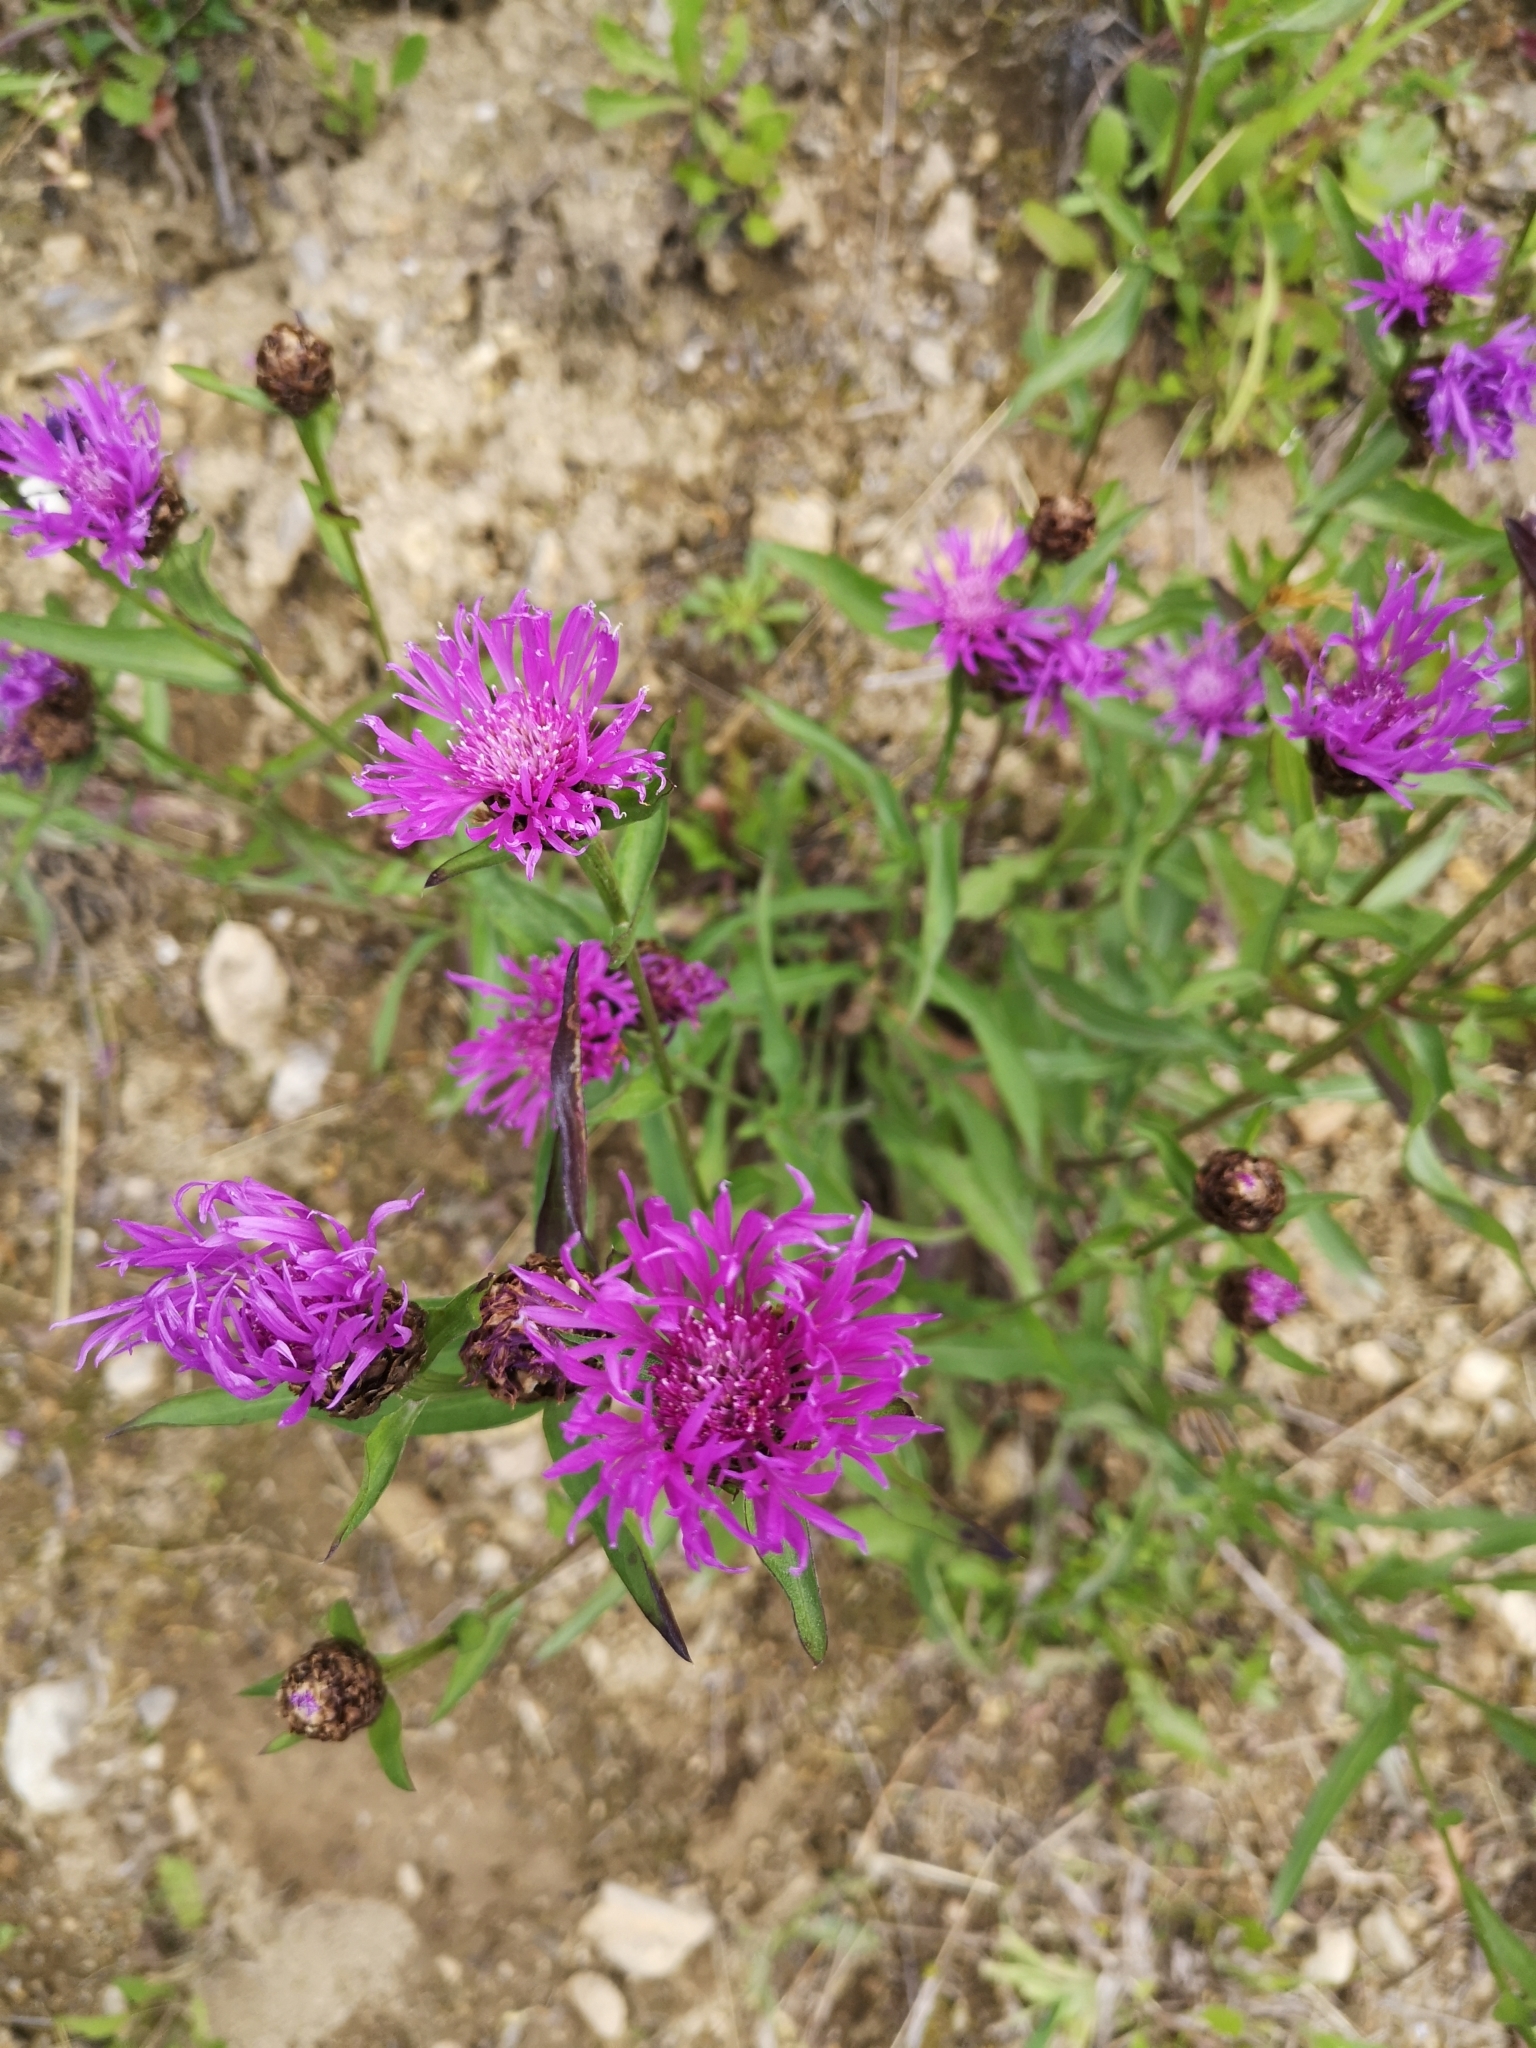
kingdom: Plantae
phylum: Tracheophyta
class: Magnoliopsida
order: Asterales
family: Asteraceae
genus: Centaurea
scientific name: Centaurea jacea
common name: Brown knapweed
